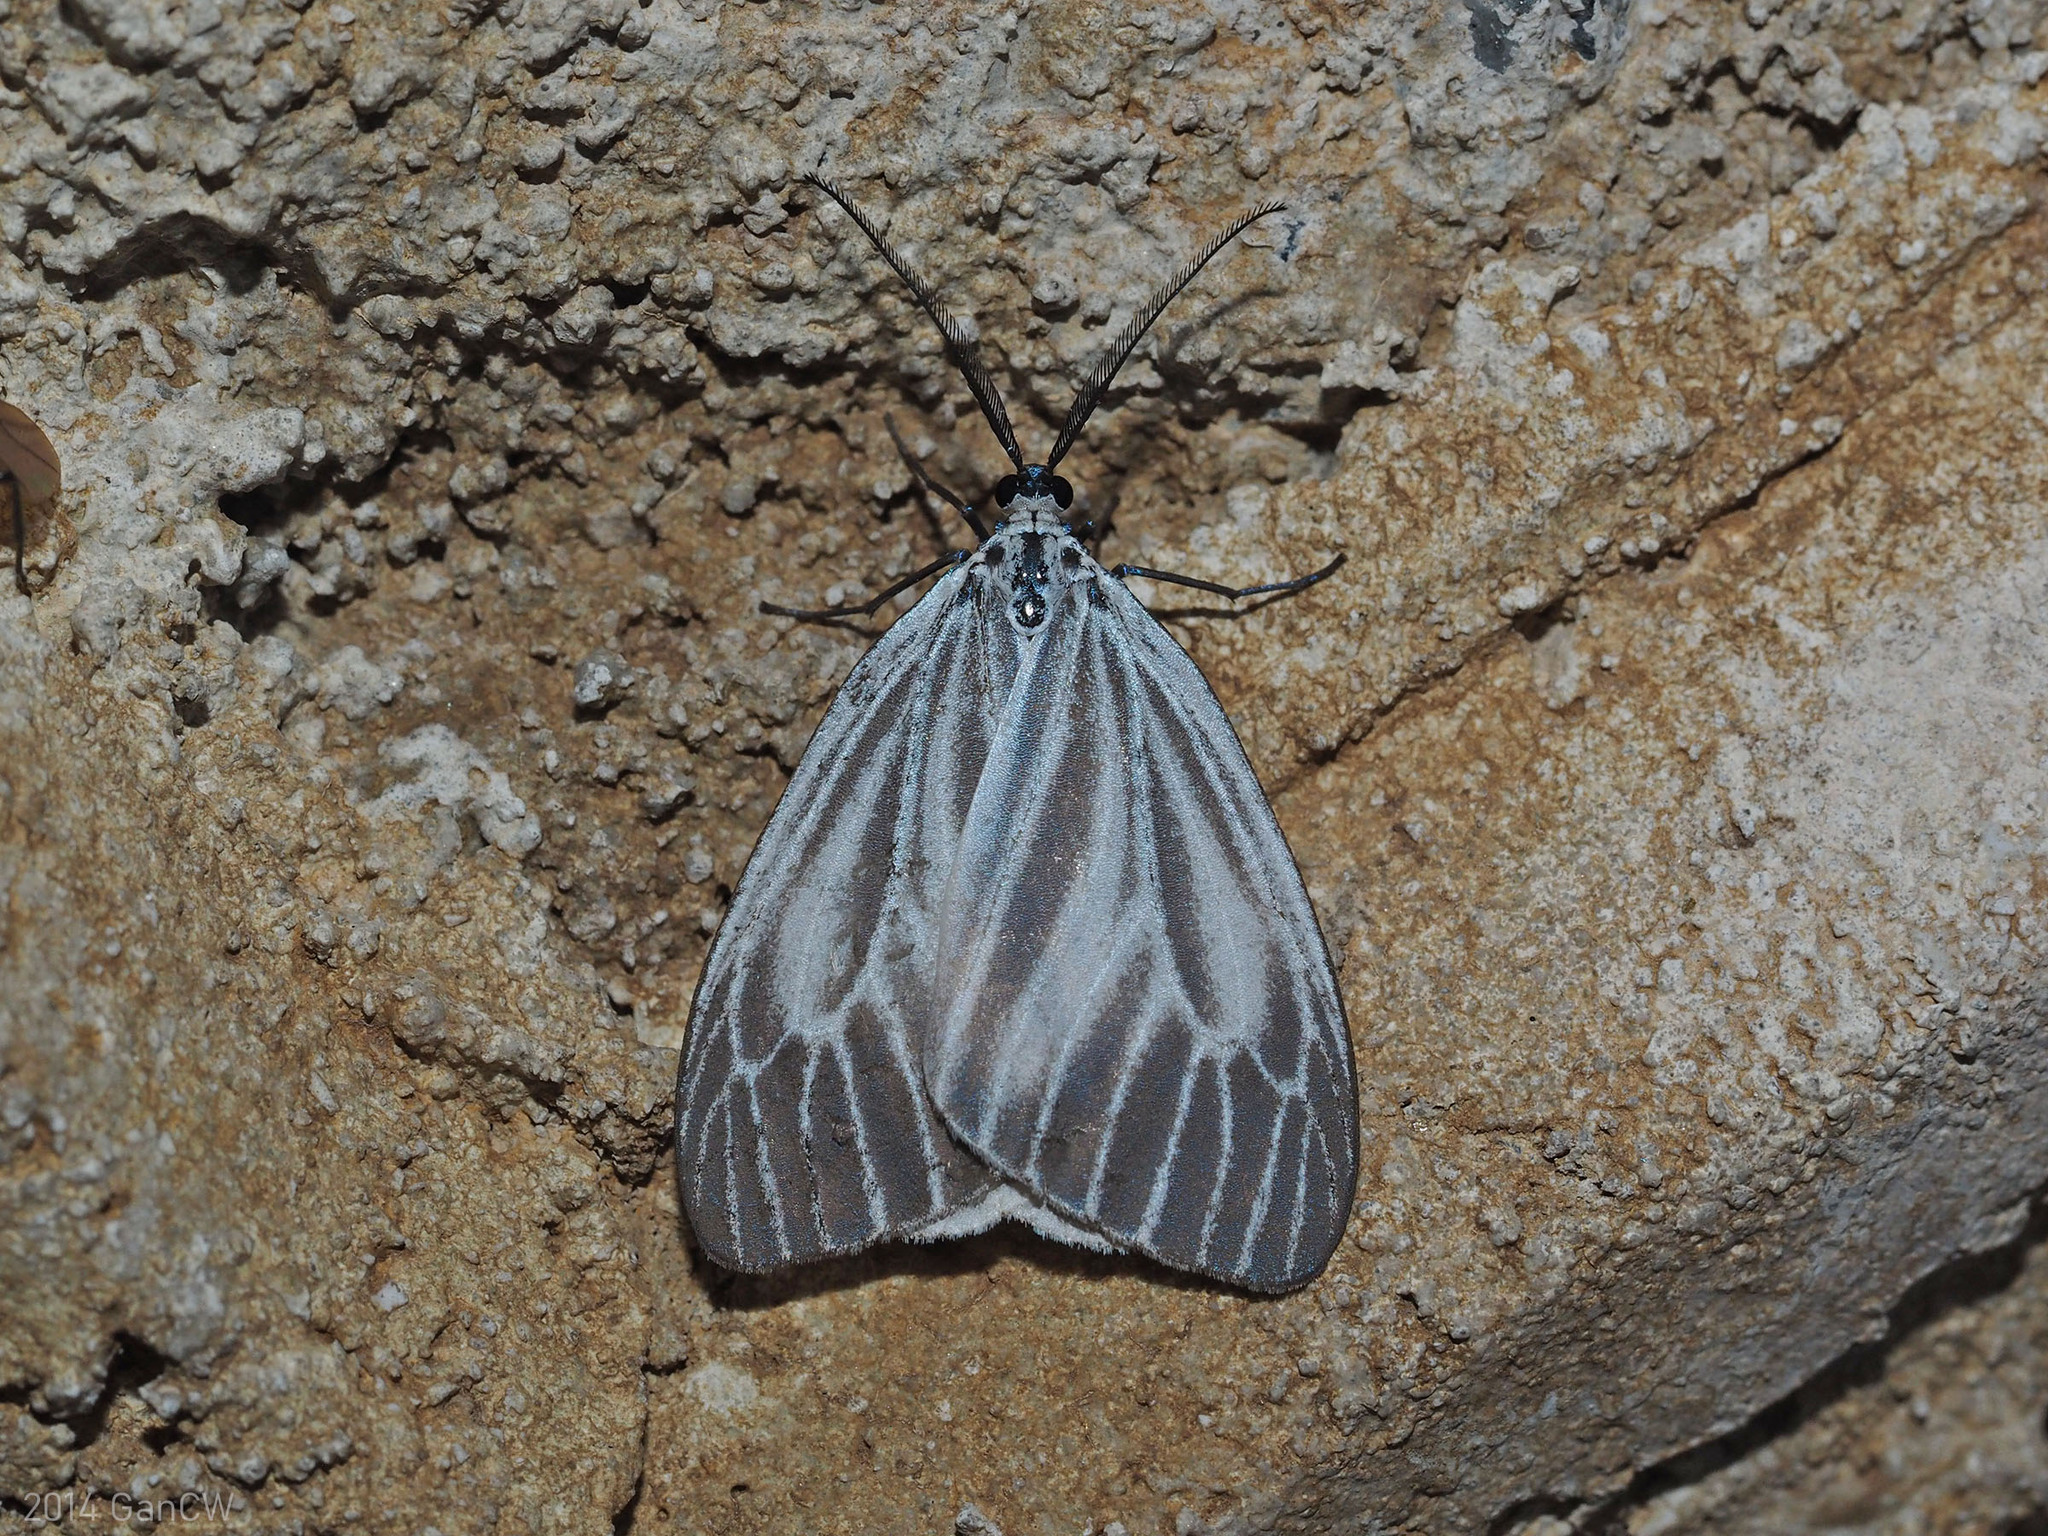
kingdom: Animalia
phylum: Arthropoda
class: Insecta
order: Lepidoptera
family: Zygaenidae
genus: Pseudonyctemera
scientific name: Pseudonyctemera dissimulata
